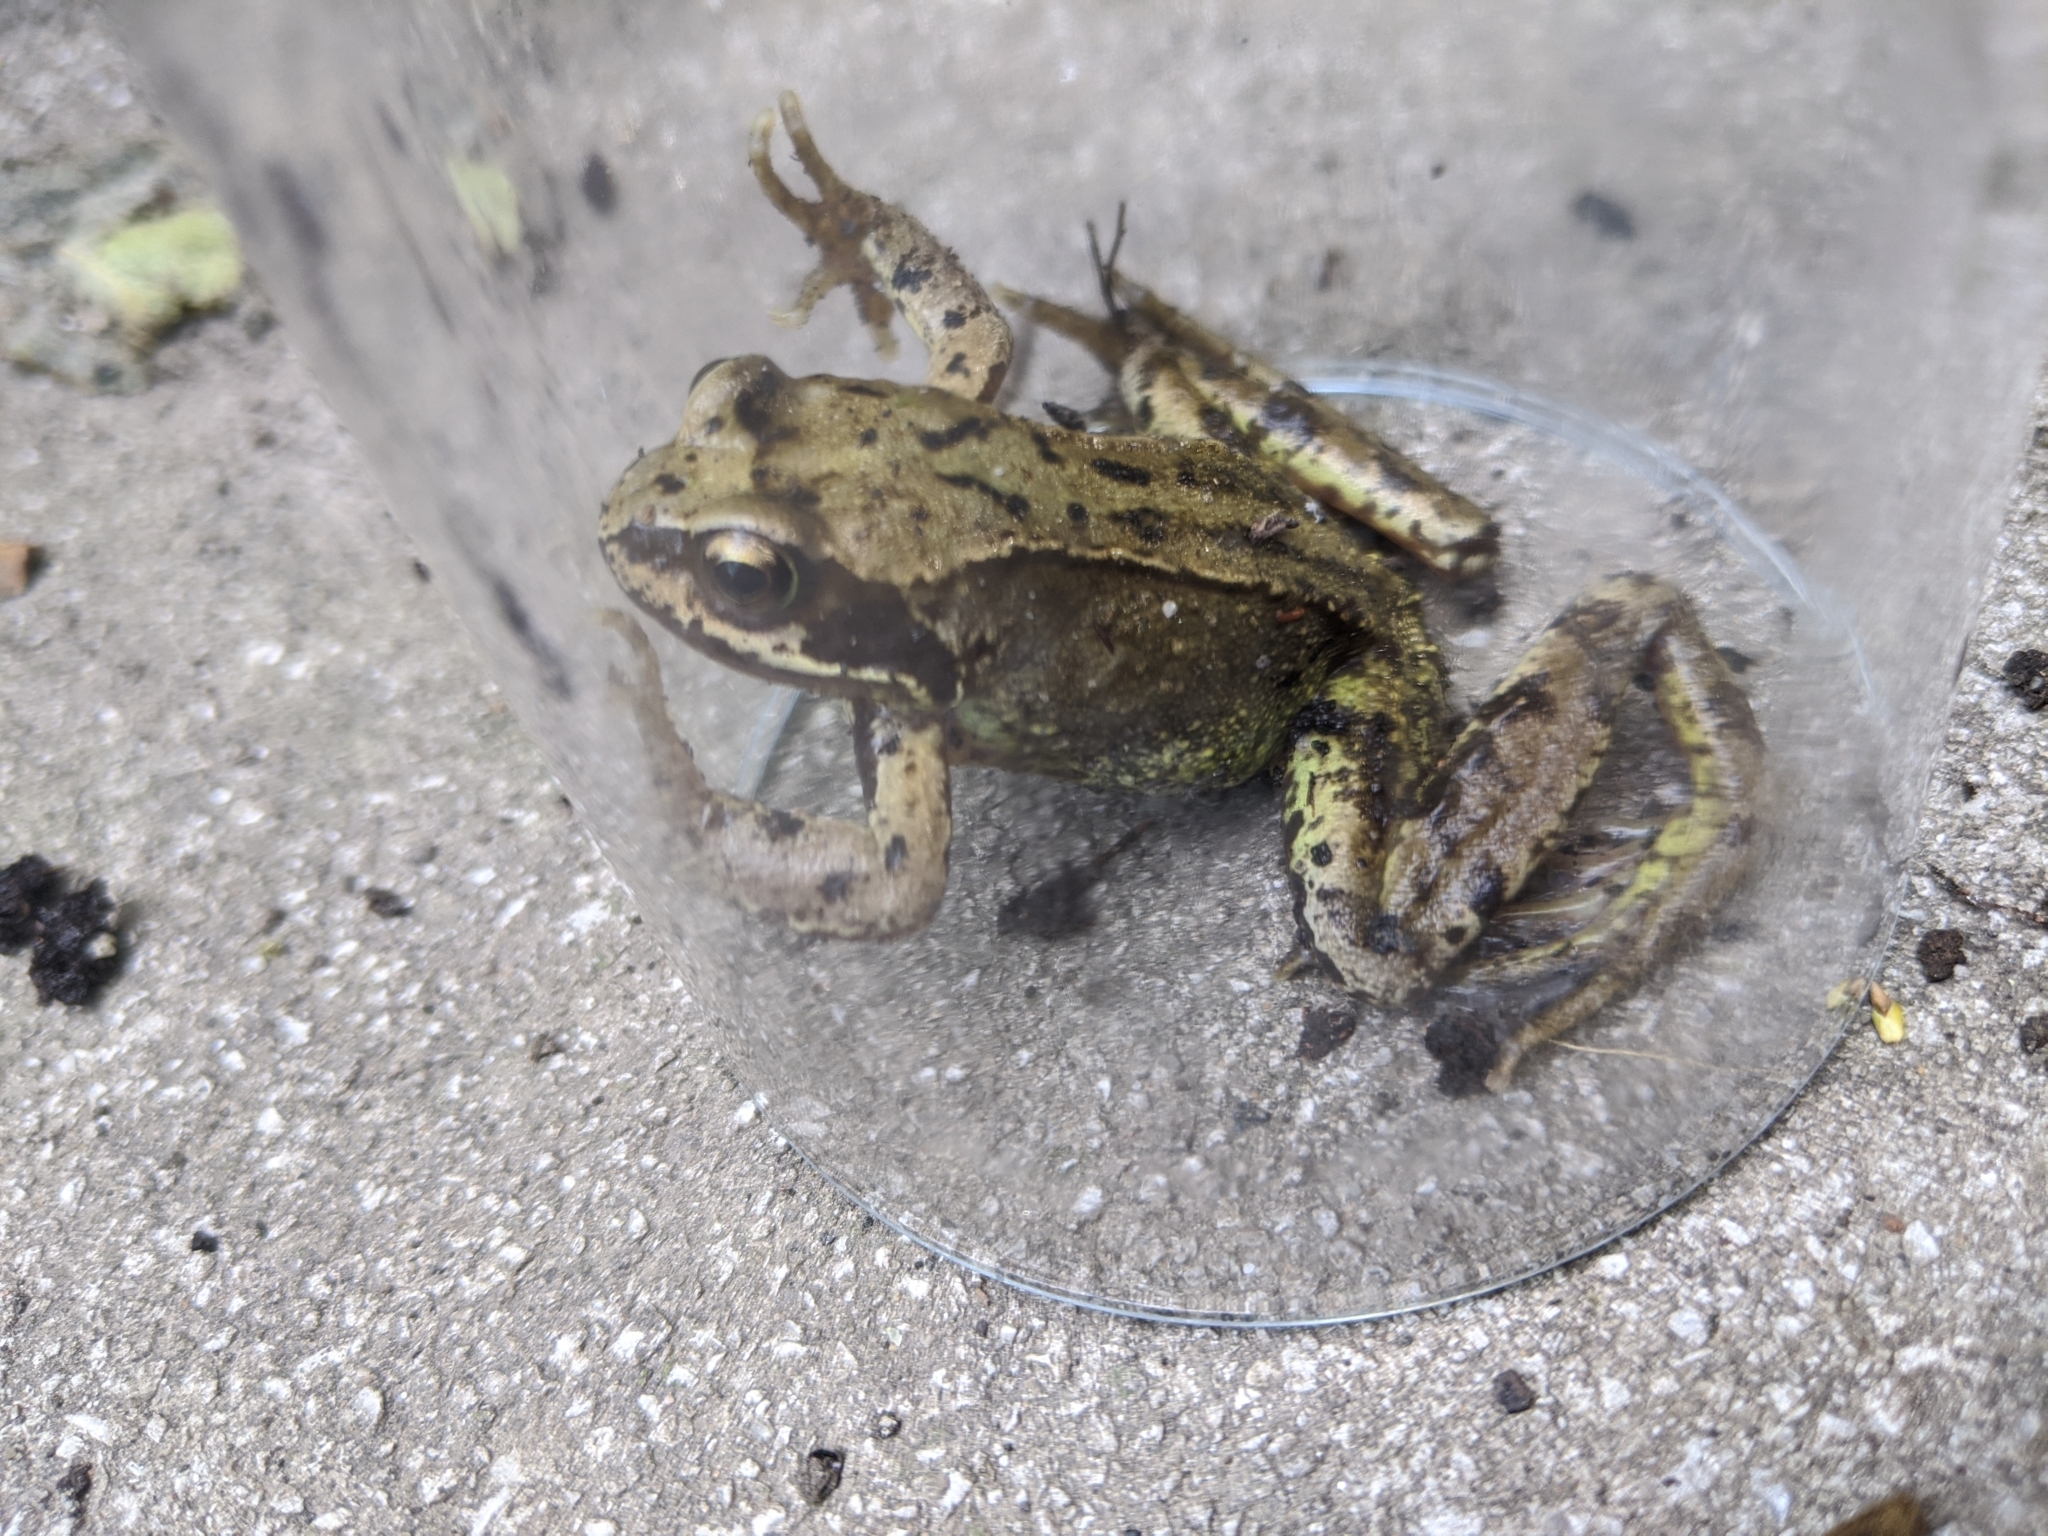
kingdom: Animalia
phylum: Chordata
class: Amphibia
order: Anura
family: Ranidae
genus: Rana
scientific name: Rana temporaria
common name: Common frog
